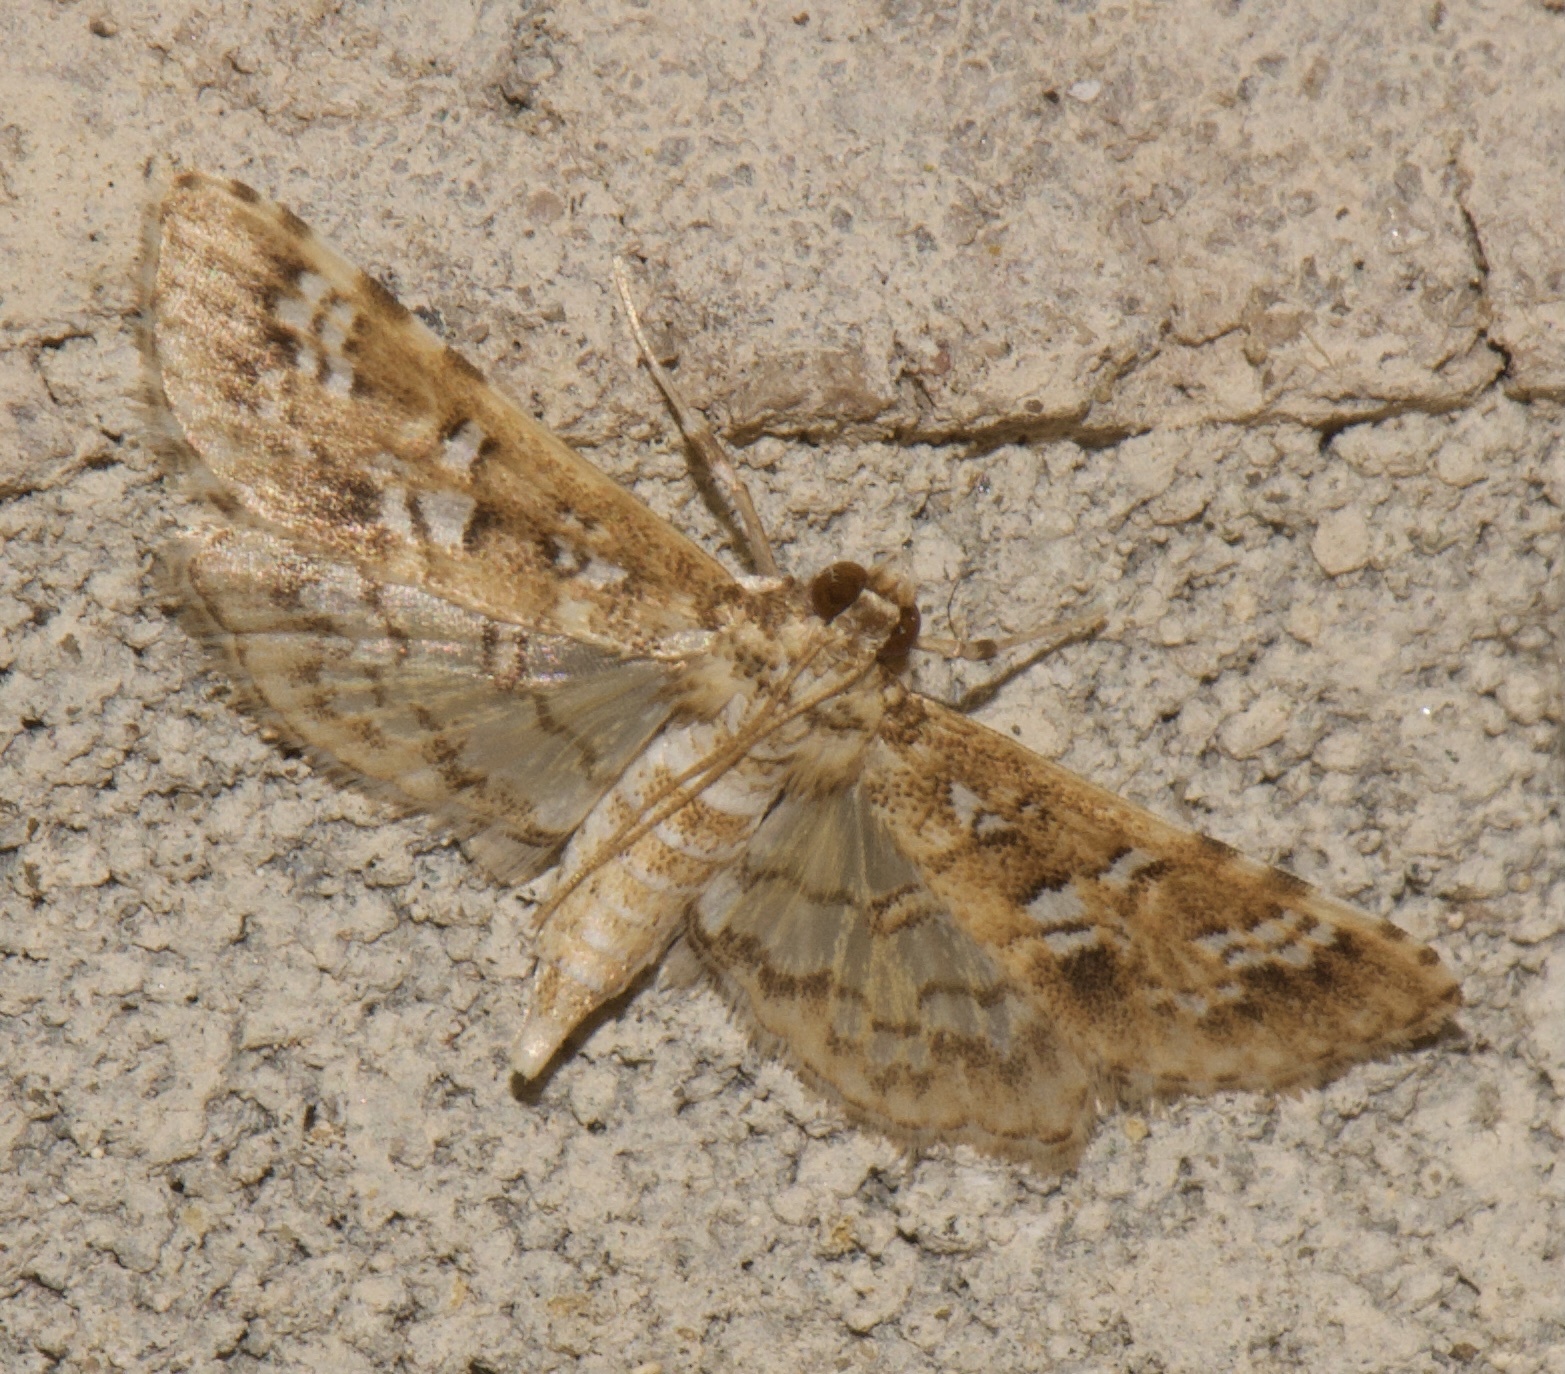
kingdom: Animalia
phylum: Arthropoda
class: Insecta
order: Lepidoptera
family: Crambidae
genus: Samea
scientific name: Samea multiplicalis
